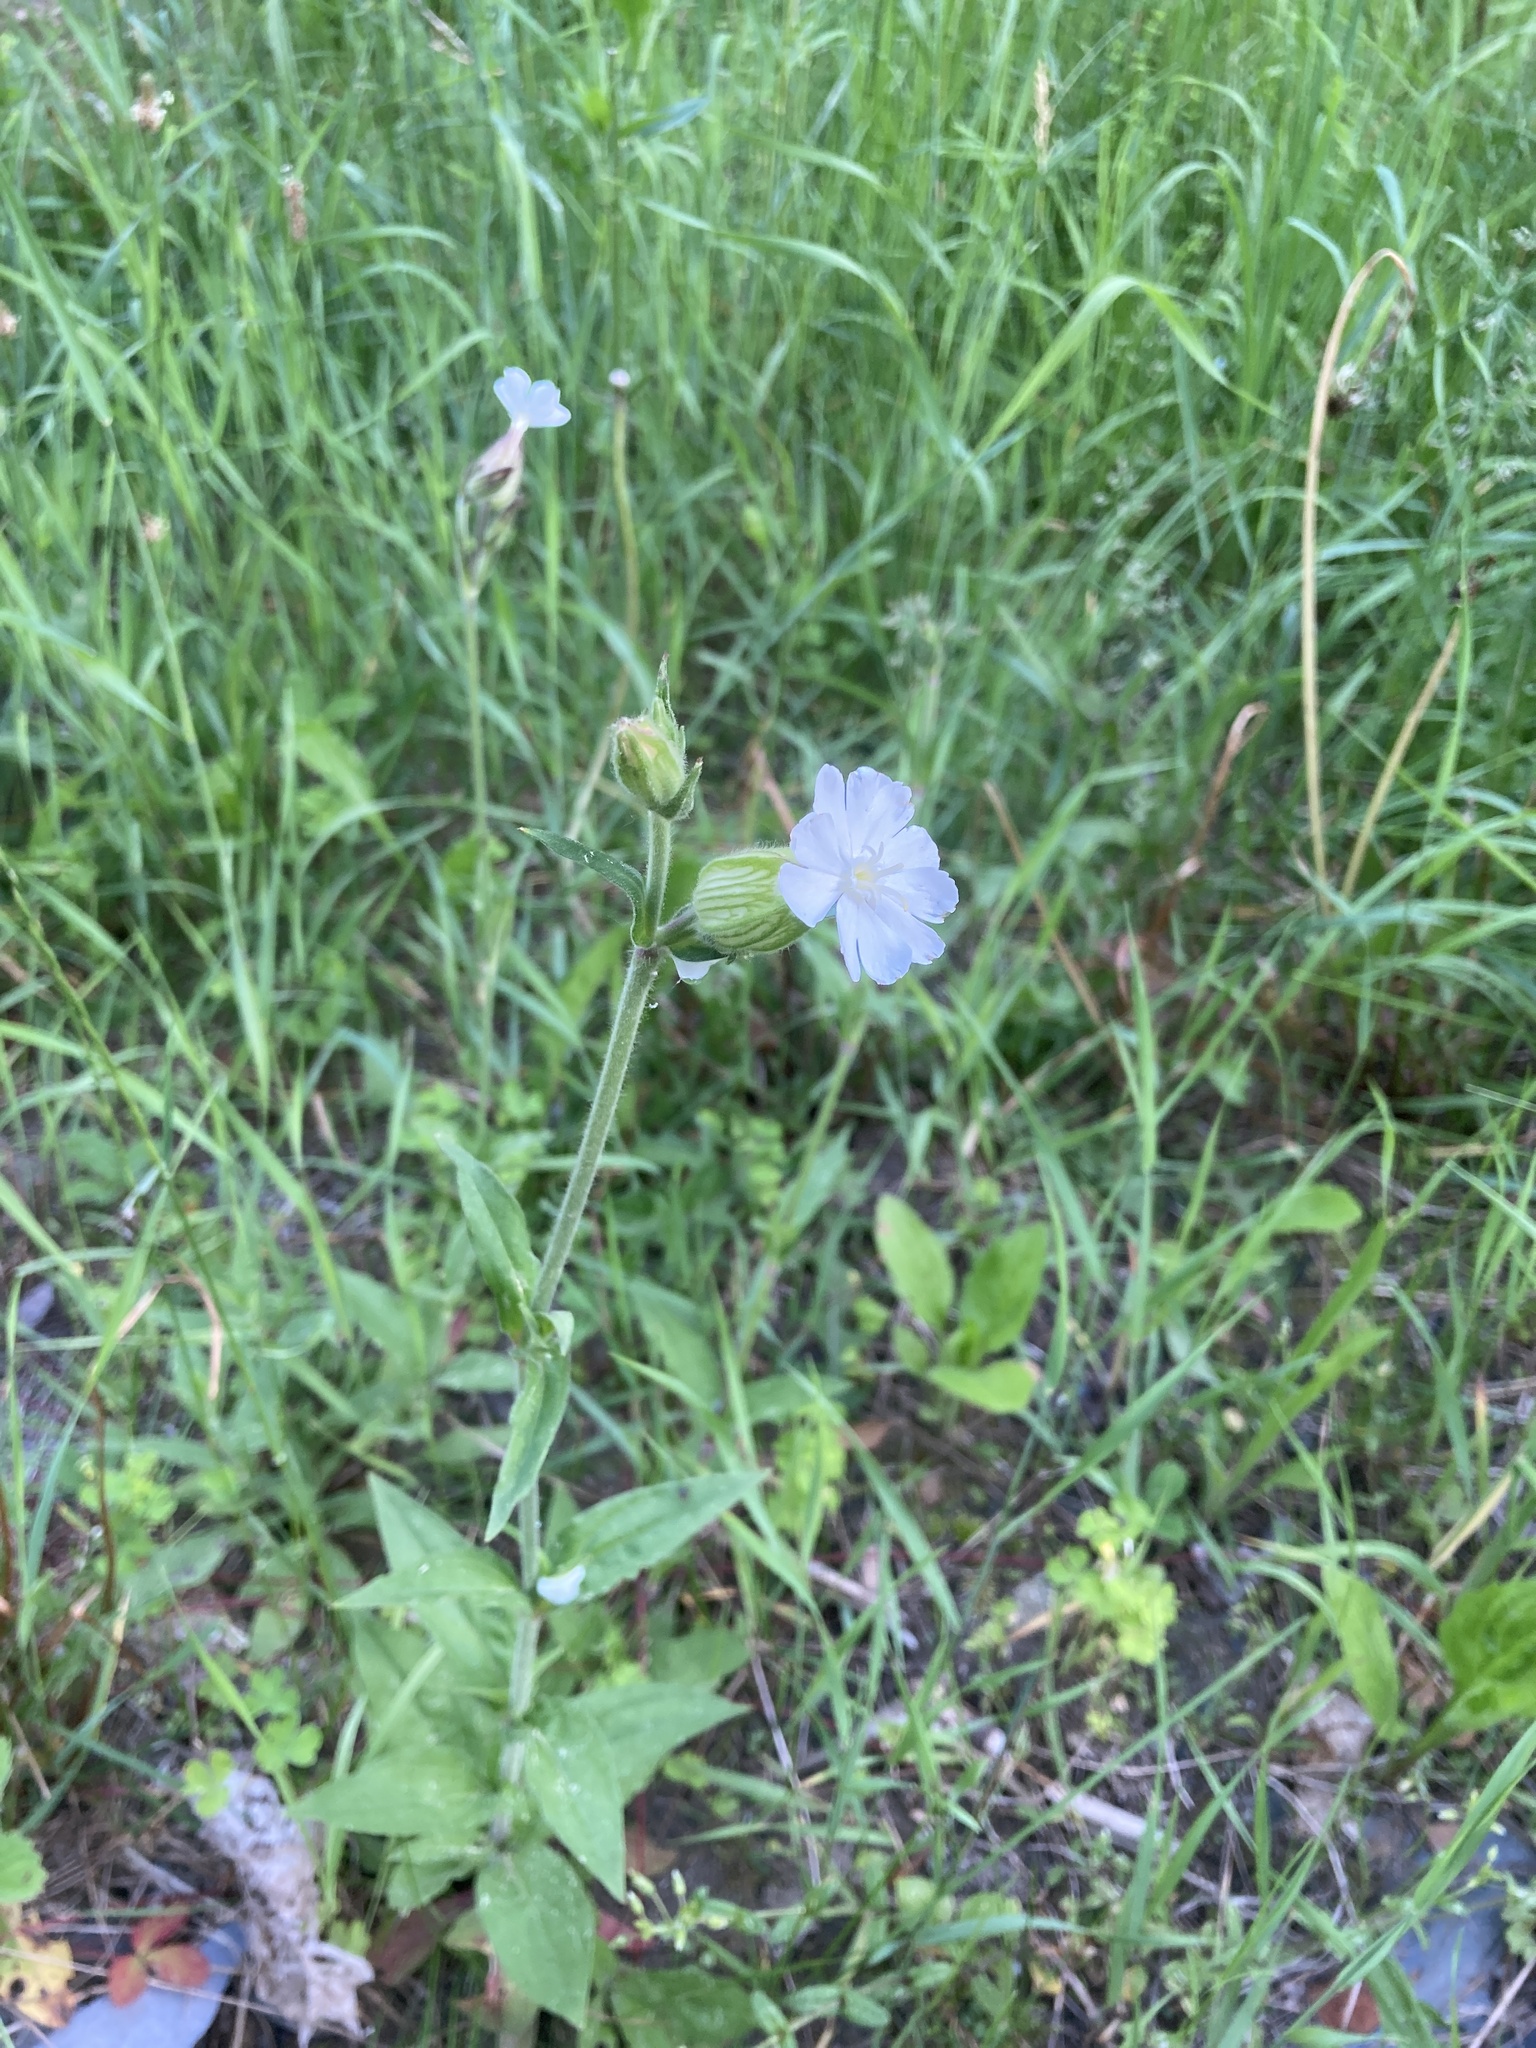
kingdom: Plantae
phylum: Tracheophyta
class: Magnoliopsida
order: Caryophyllales
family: Caryophyllaceae
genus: Silene
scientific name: Silene latifolia
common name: White campion
